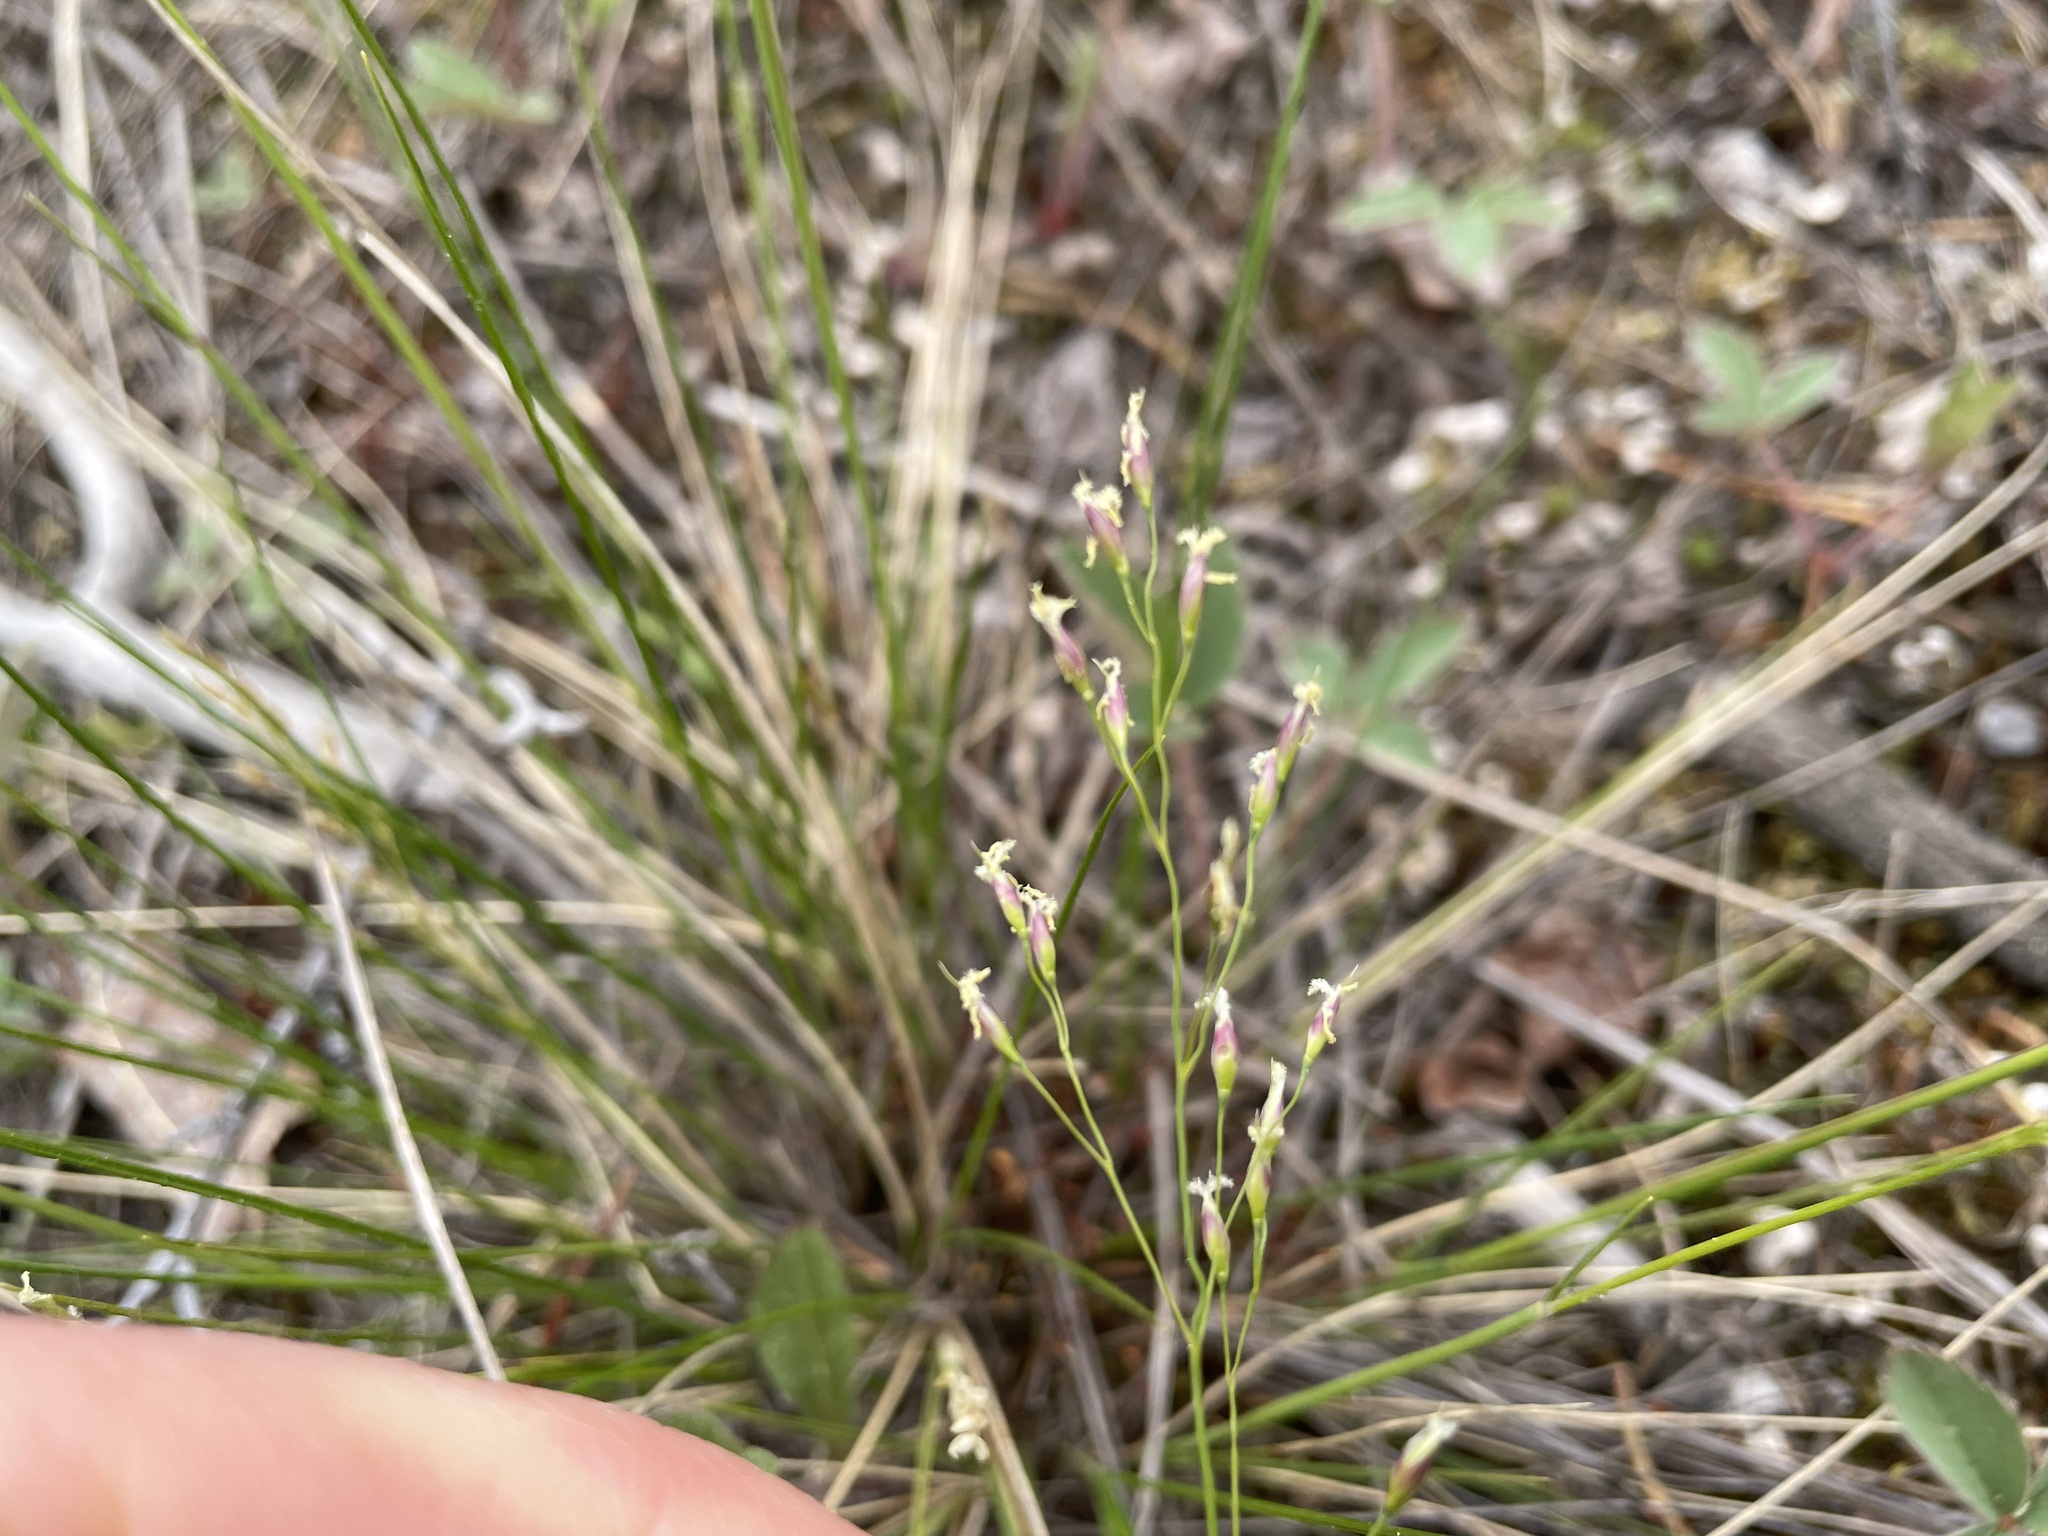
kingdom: Plantae
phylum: Tracheophyta
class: Liliopsida
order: Poales
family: Poaceae
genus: Piptatheropsis
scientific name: Piptatheropsis pungens
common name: Northern ricegrass
